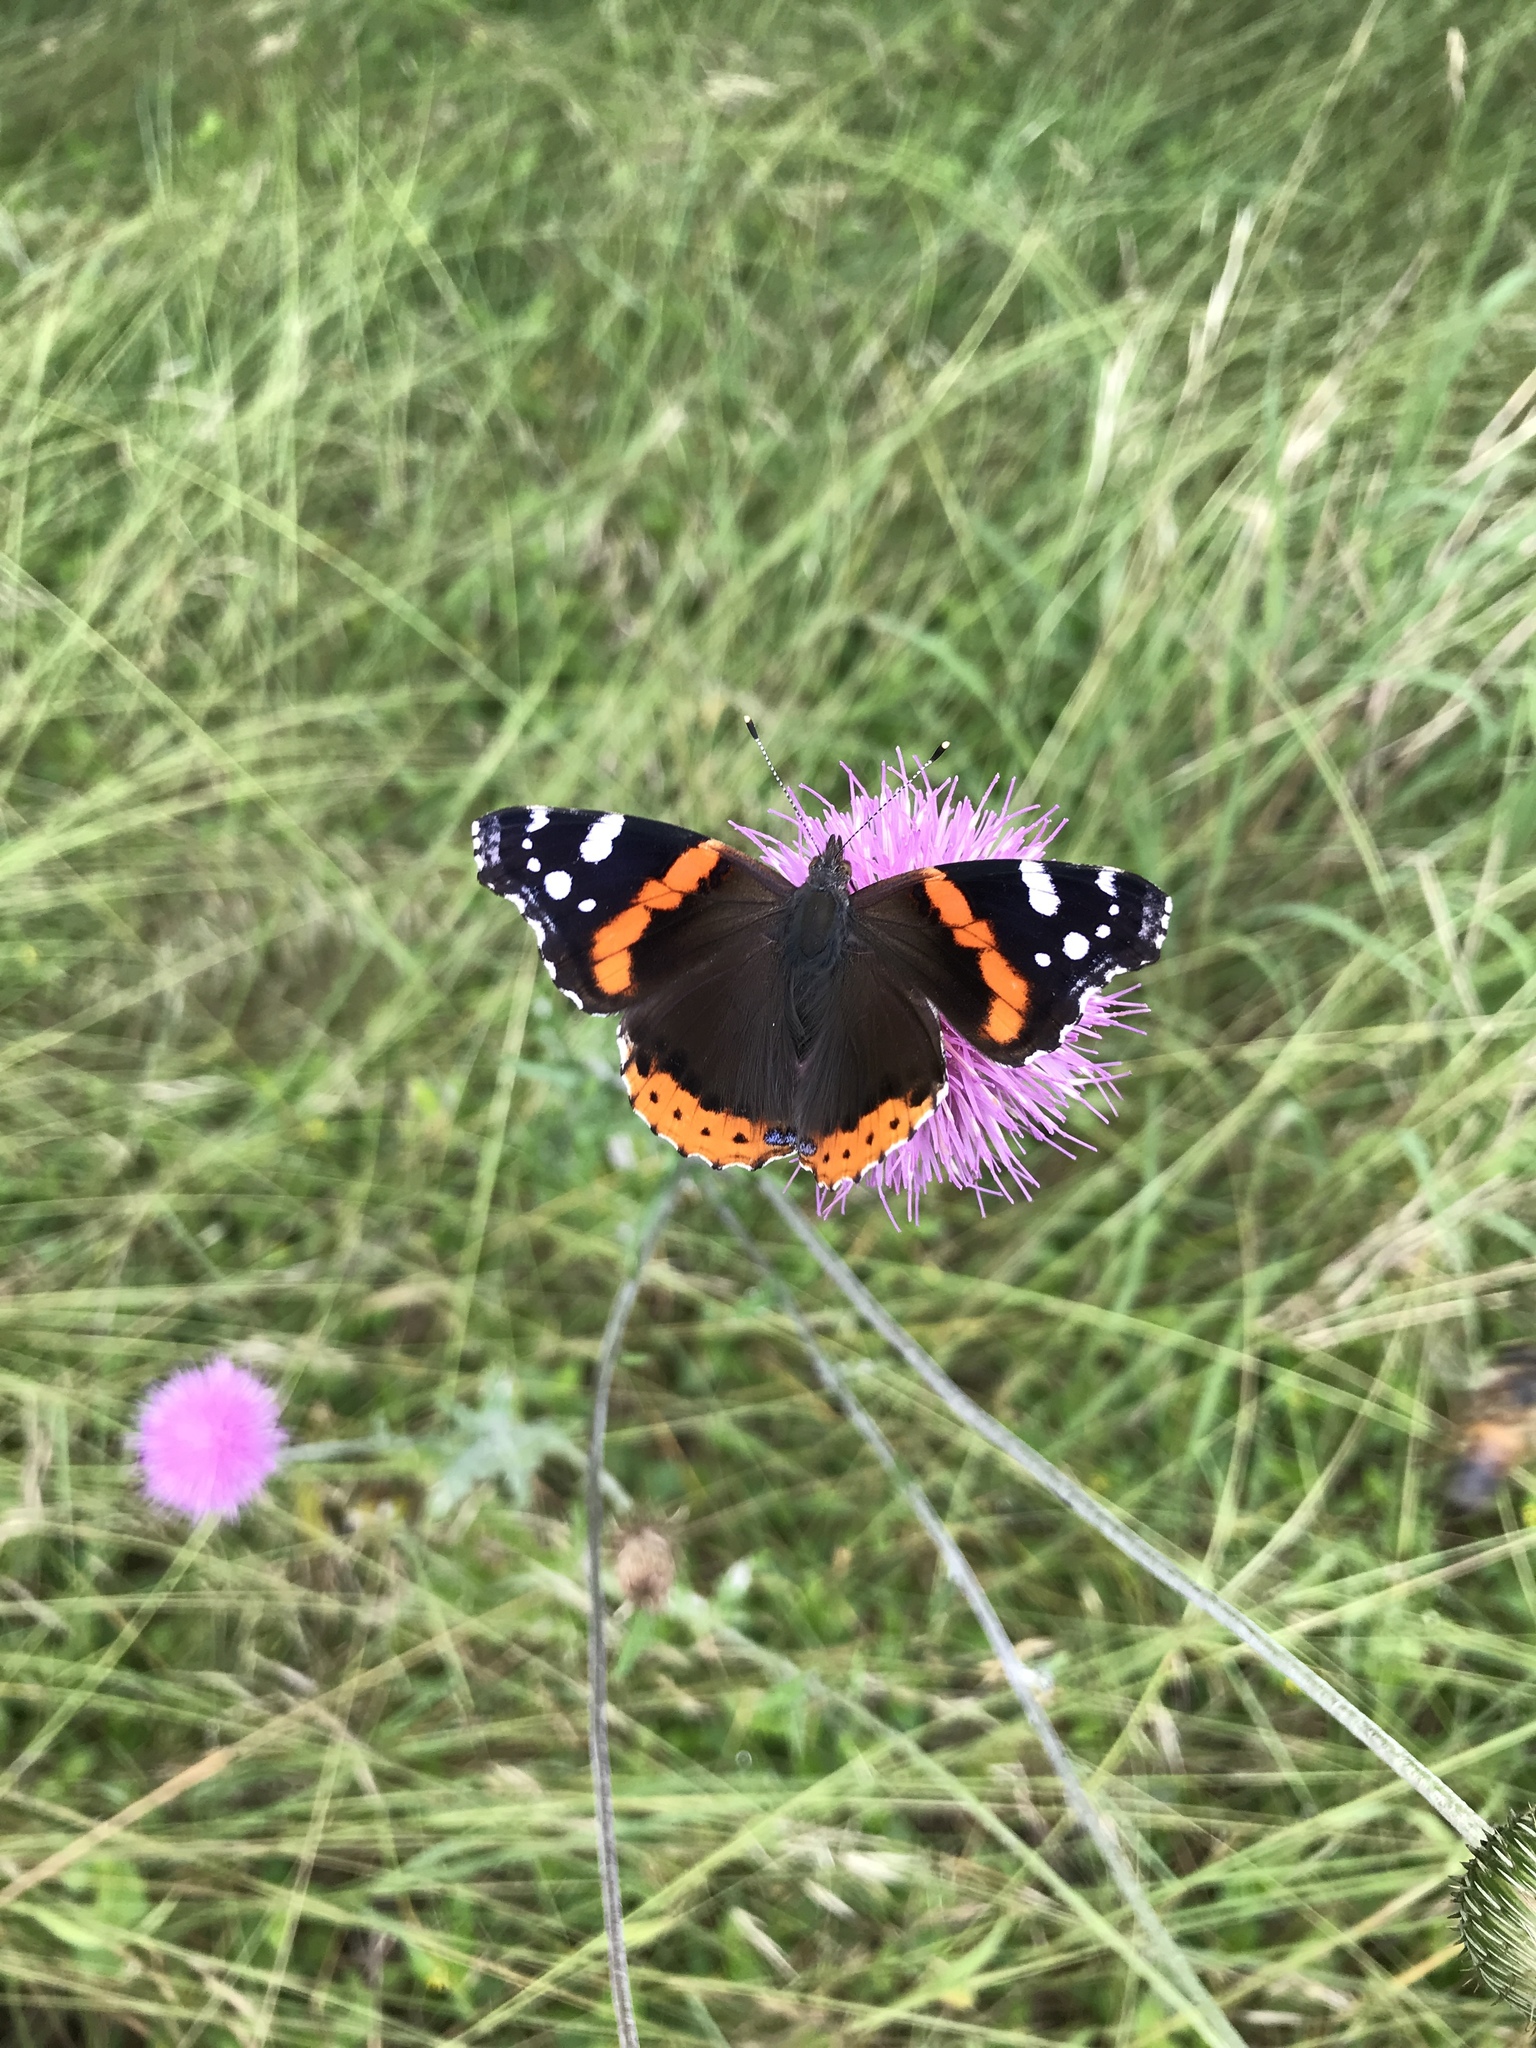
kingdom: Animalia
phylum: Arthropoda
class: Insecta
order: Lepidoptera
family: Nymphalidae
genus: Vanessa
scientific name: Vanessa atalanta
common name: Red admiral
